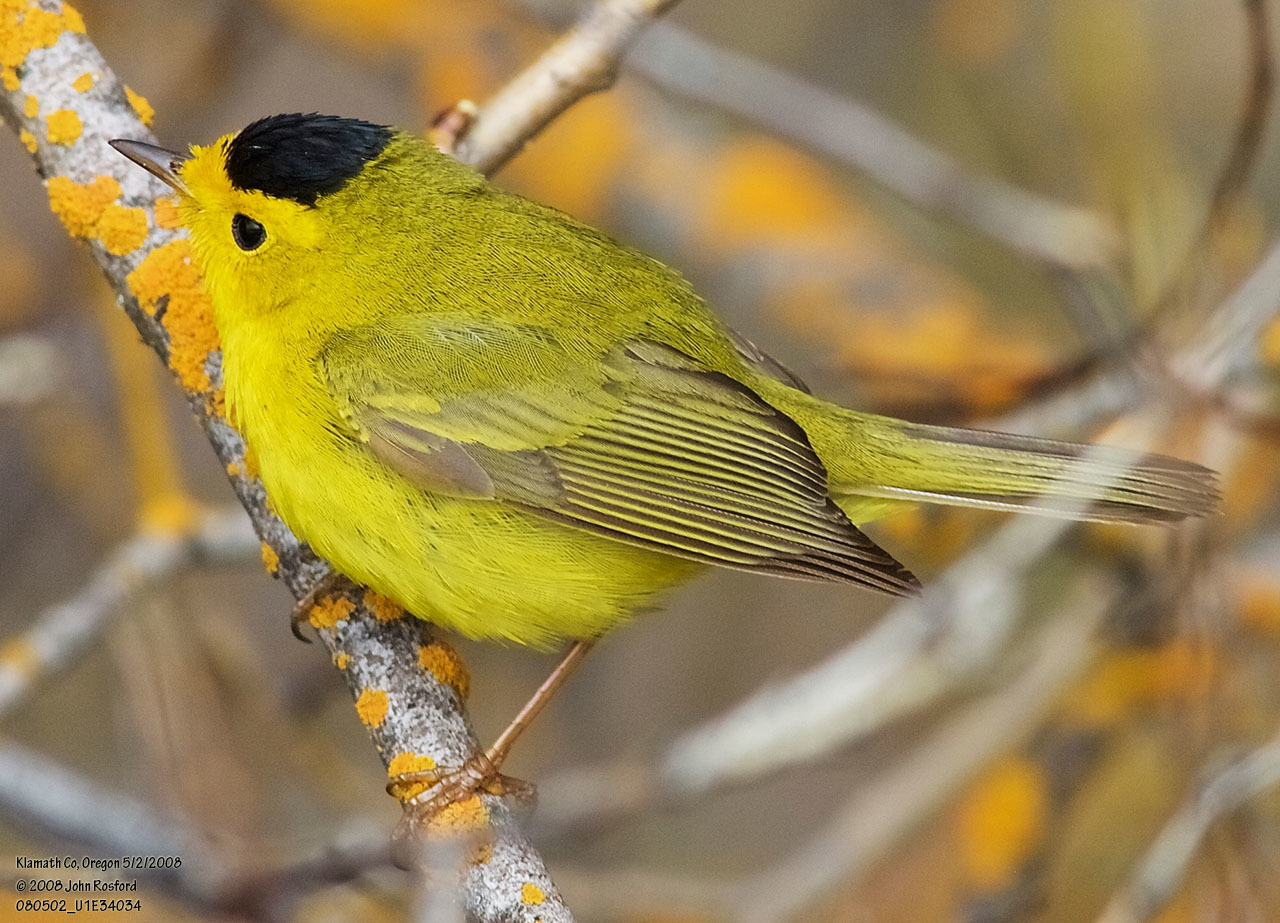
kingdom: Animalia
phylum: Chordata
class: Aves
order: Passeriformes
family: Parulidae
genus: Cardellina
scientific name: Cardellina pusilla
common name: Wilson's warbler
